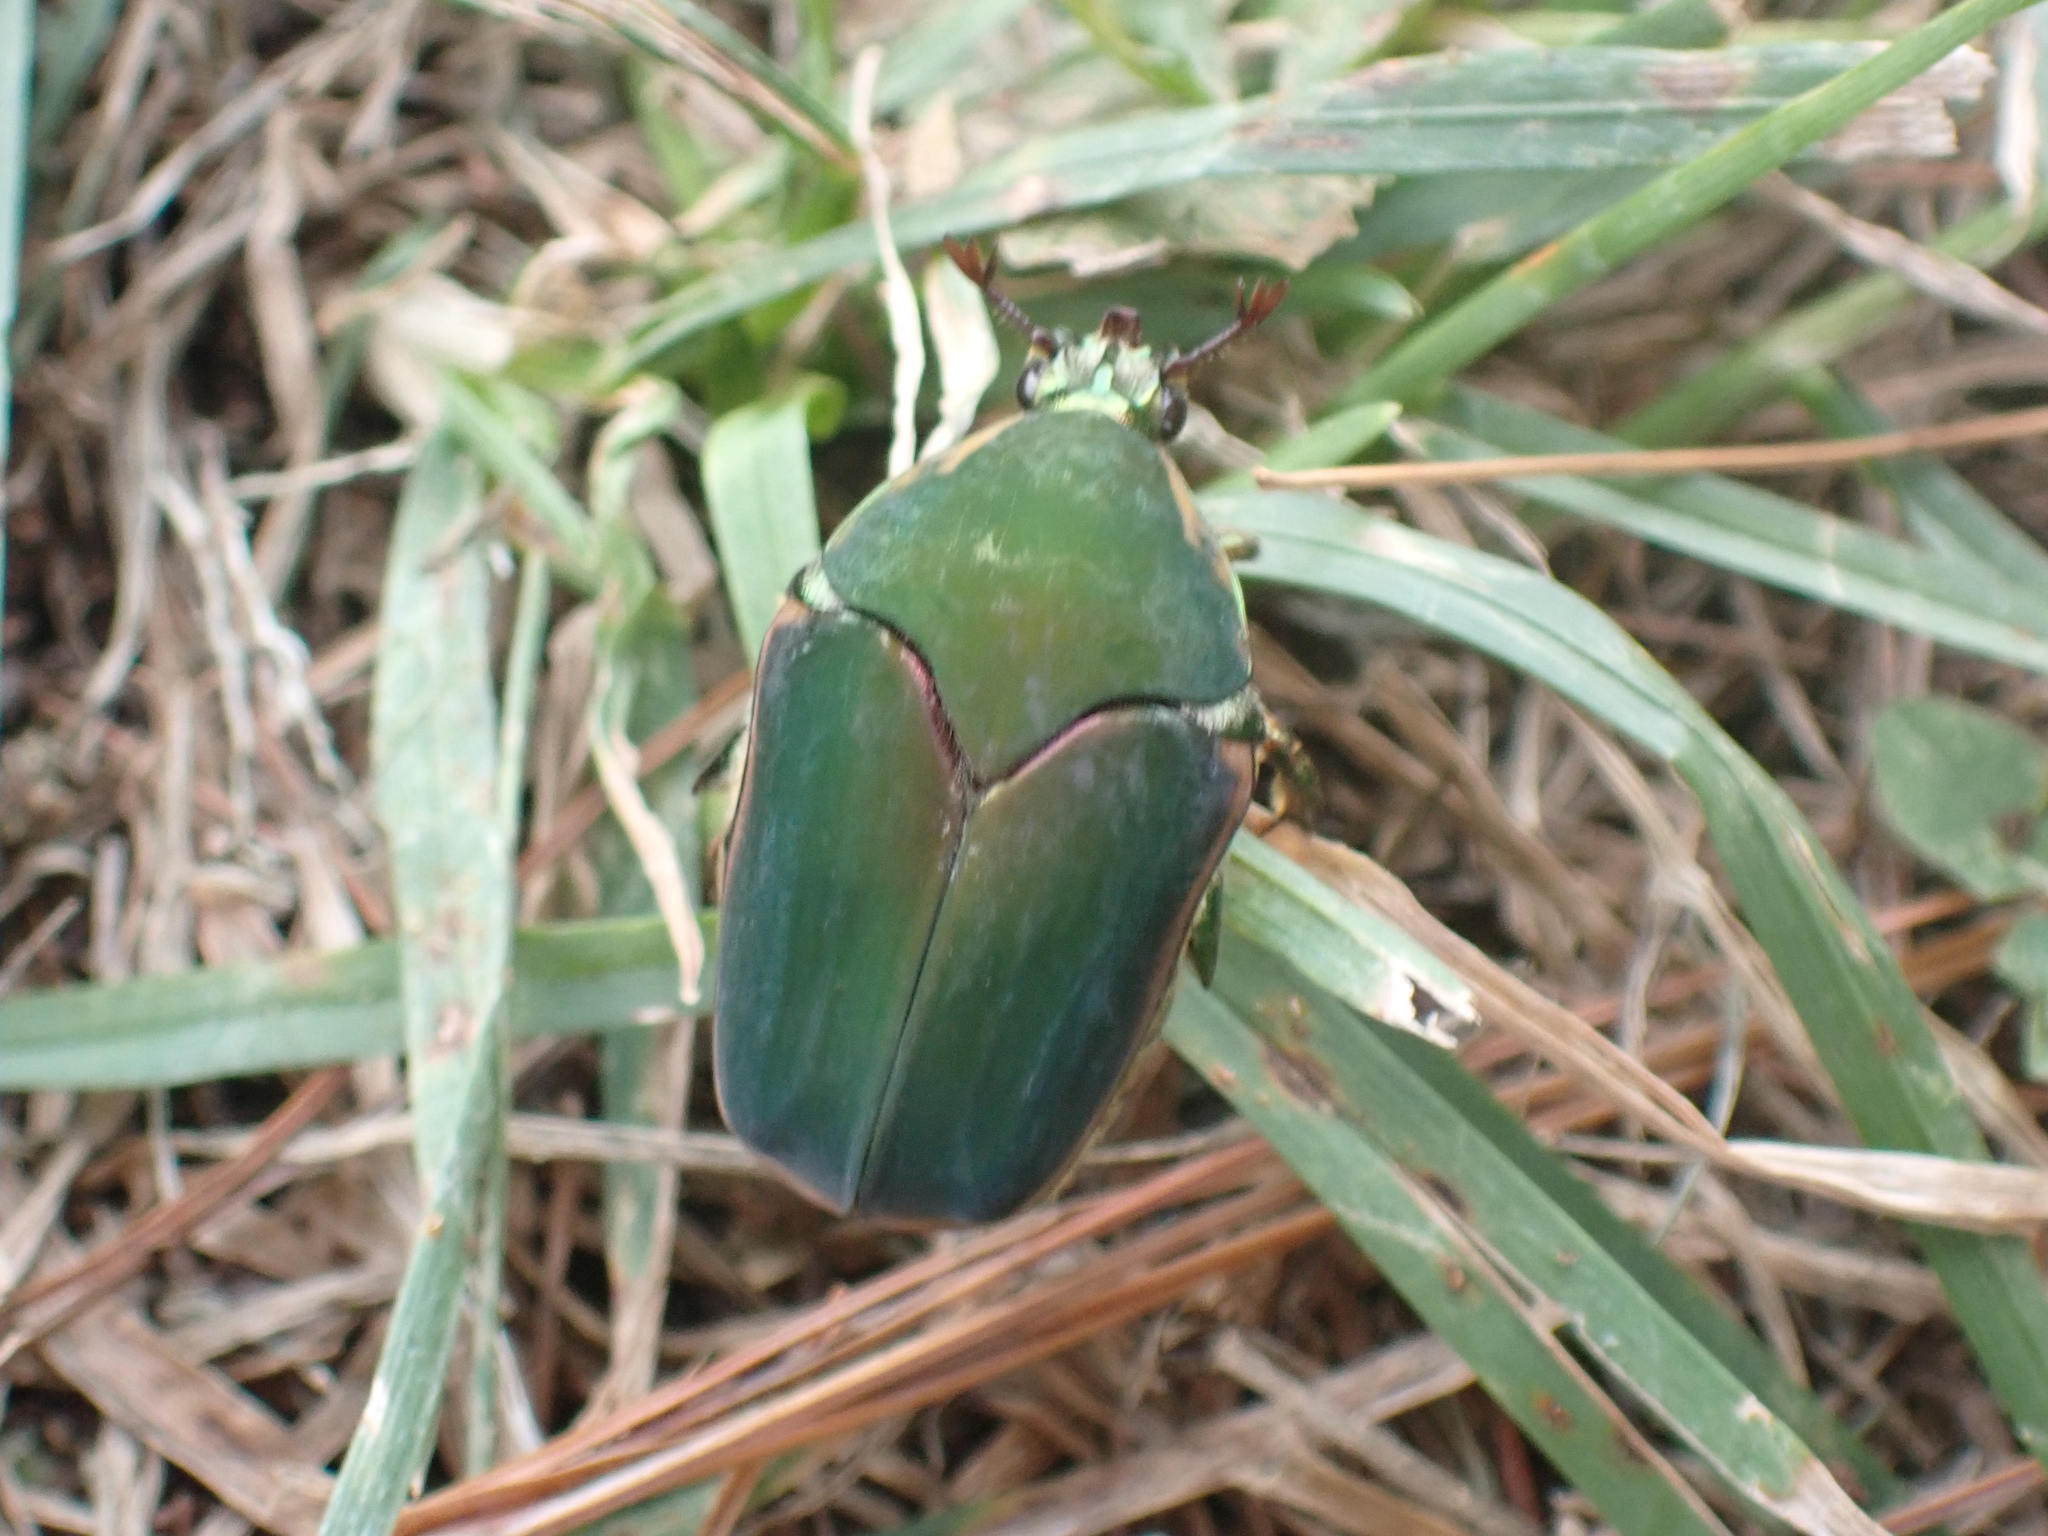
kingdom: Animalia
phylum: Arthropoda
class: Insecta
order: Coleoptera
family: Scarabaeidae
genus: Cotinis
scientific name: Cotinis nitida
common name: Common green june beetle
